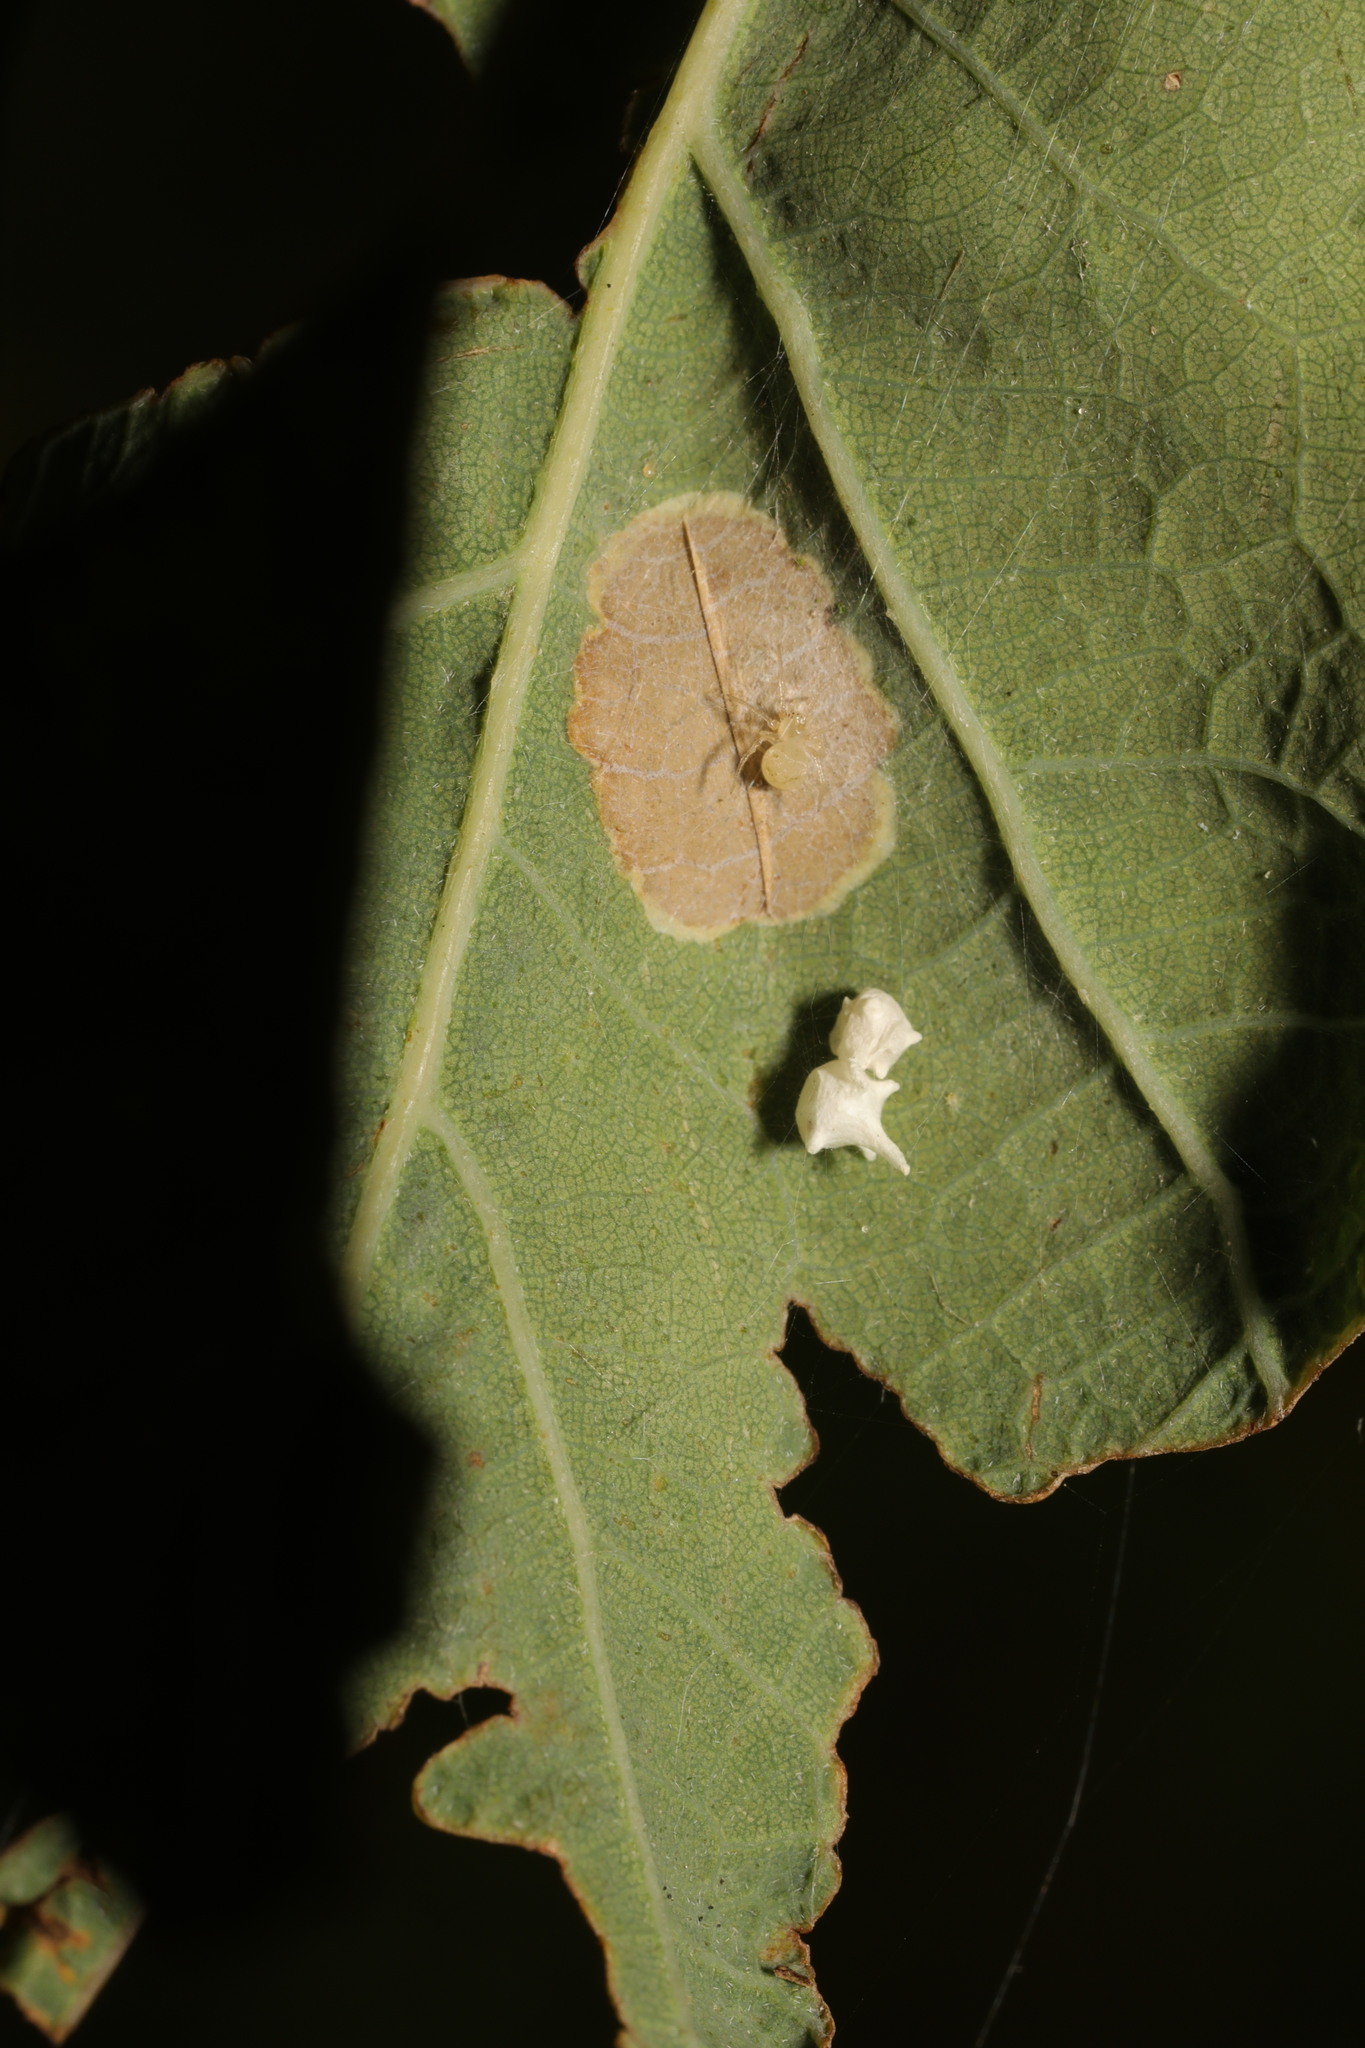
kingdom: Animalia
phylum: Arthropoda
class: Arachnida
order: Araneae
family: Theridiidae
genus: Paidiscura
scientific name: Paidiscura pallens
